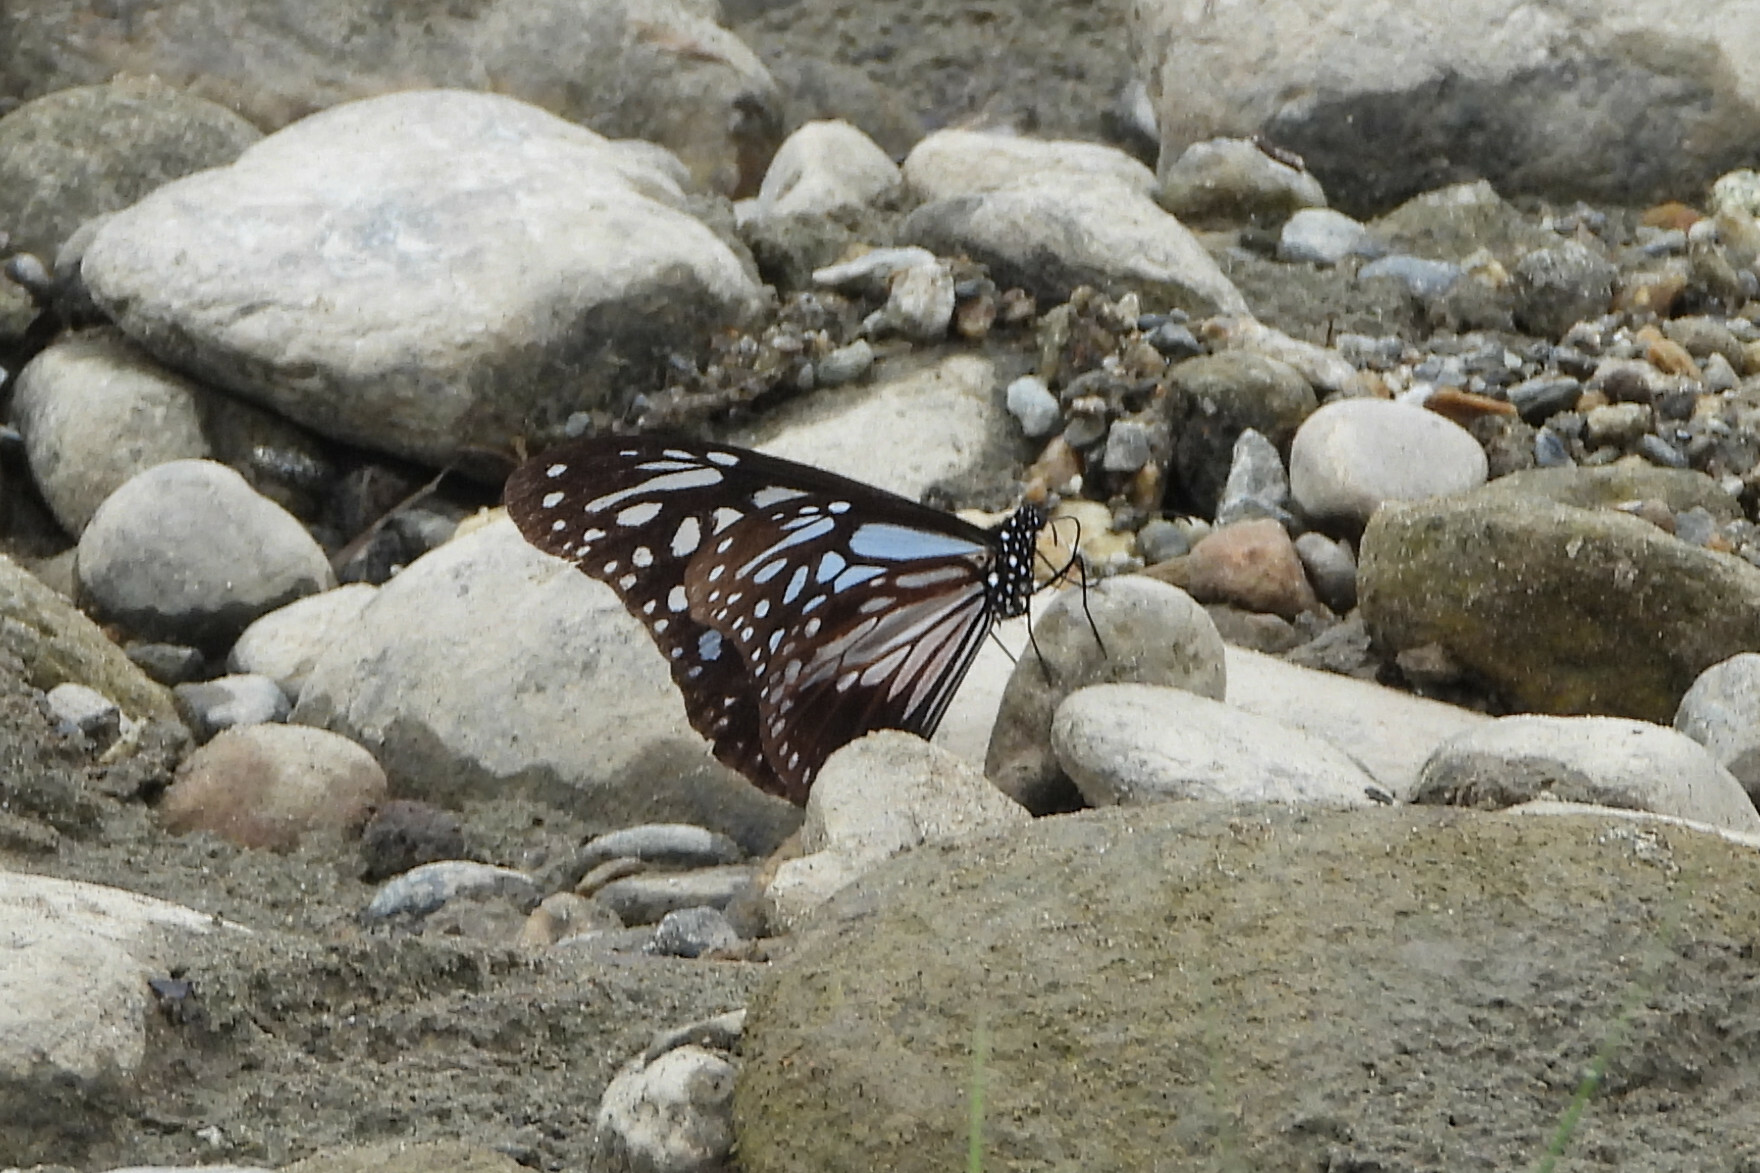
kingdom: Animalia
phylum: Arthropoda
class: Insecta
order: Lepidoptera
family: Nymphalidae
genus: Parantica
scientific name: Parantica melaneus
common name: Chocolate tiger
